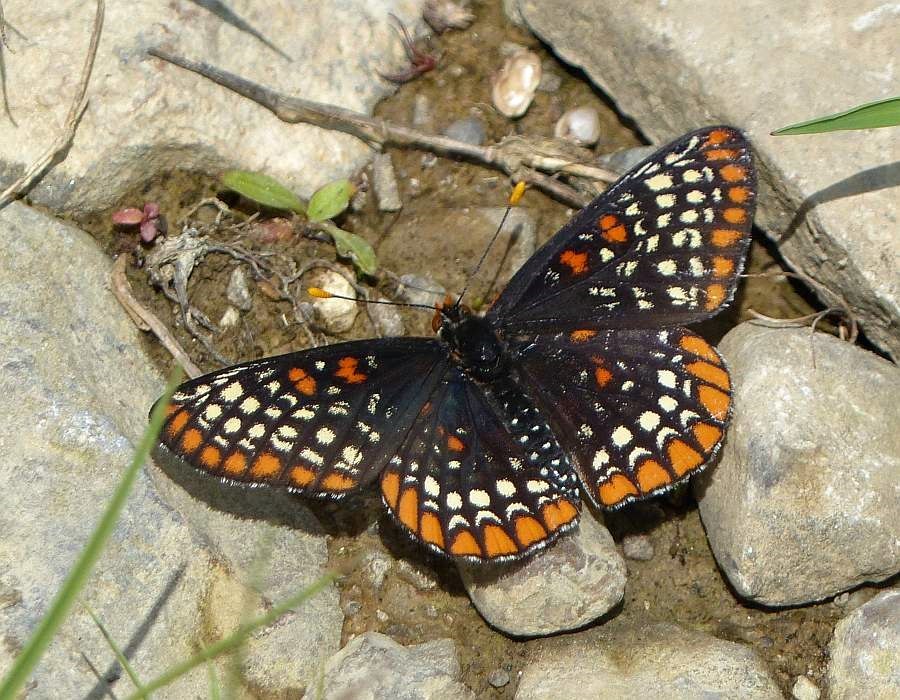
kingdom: Animalia
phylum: Arthropoda
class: Insecta
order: Lepidoptera
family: Nymphalidae
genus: Euphydryas
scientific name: Euphydryas phaeton
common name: Baltimore checkerspot
